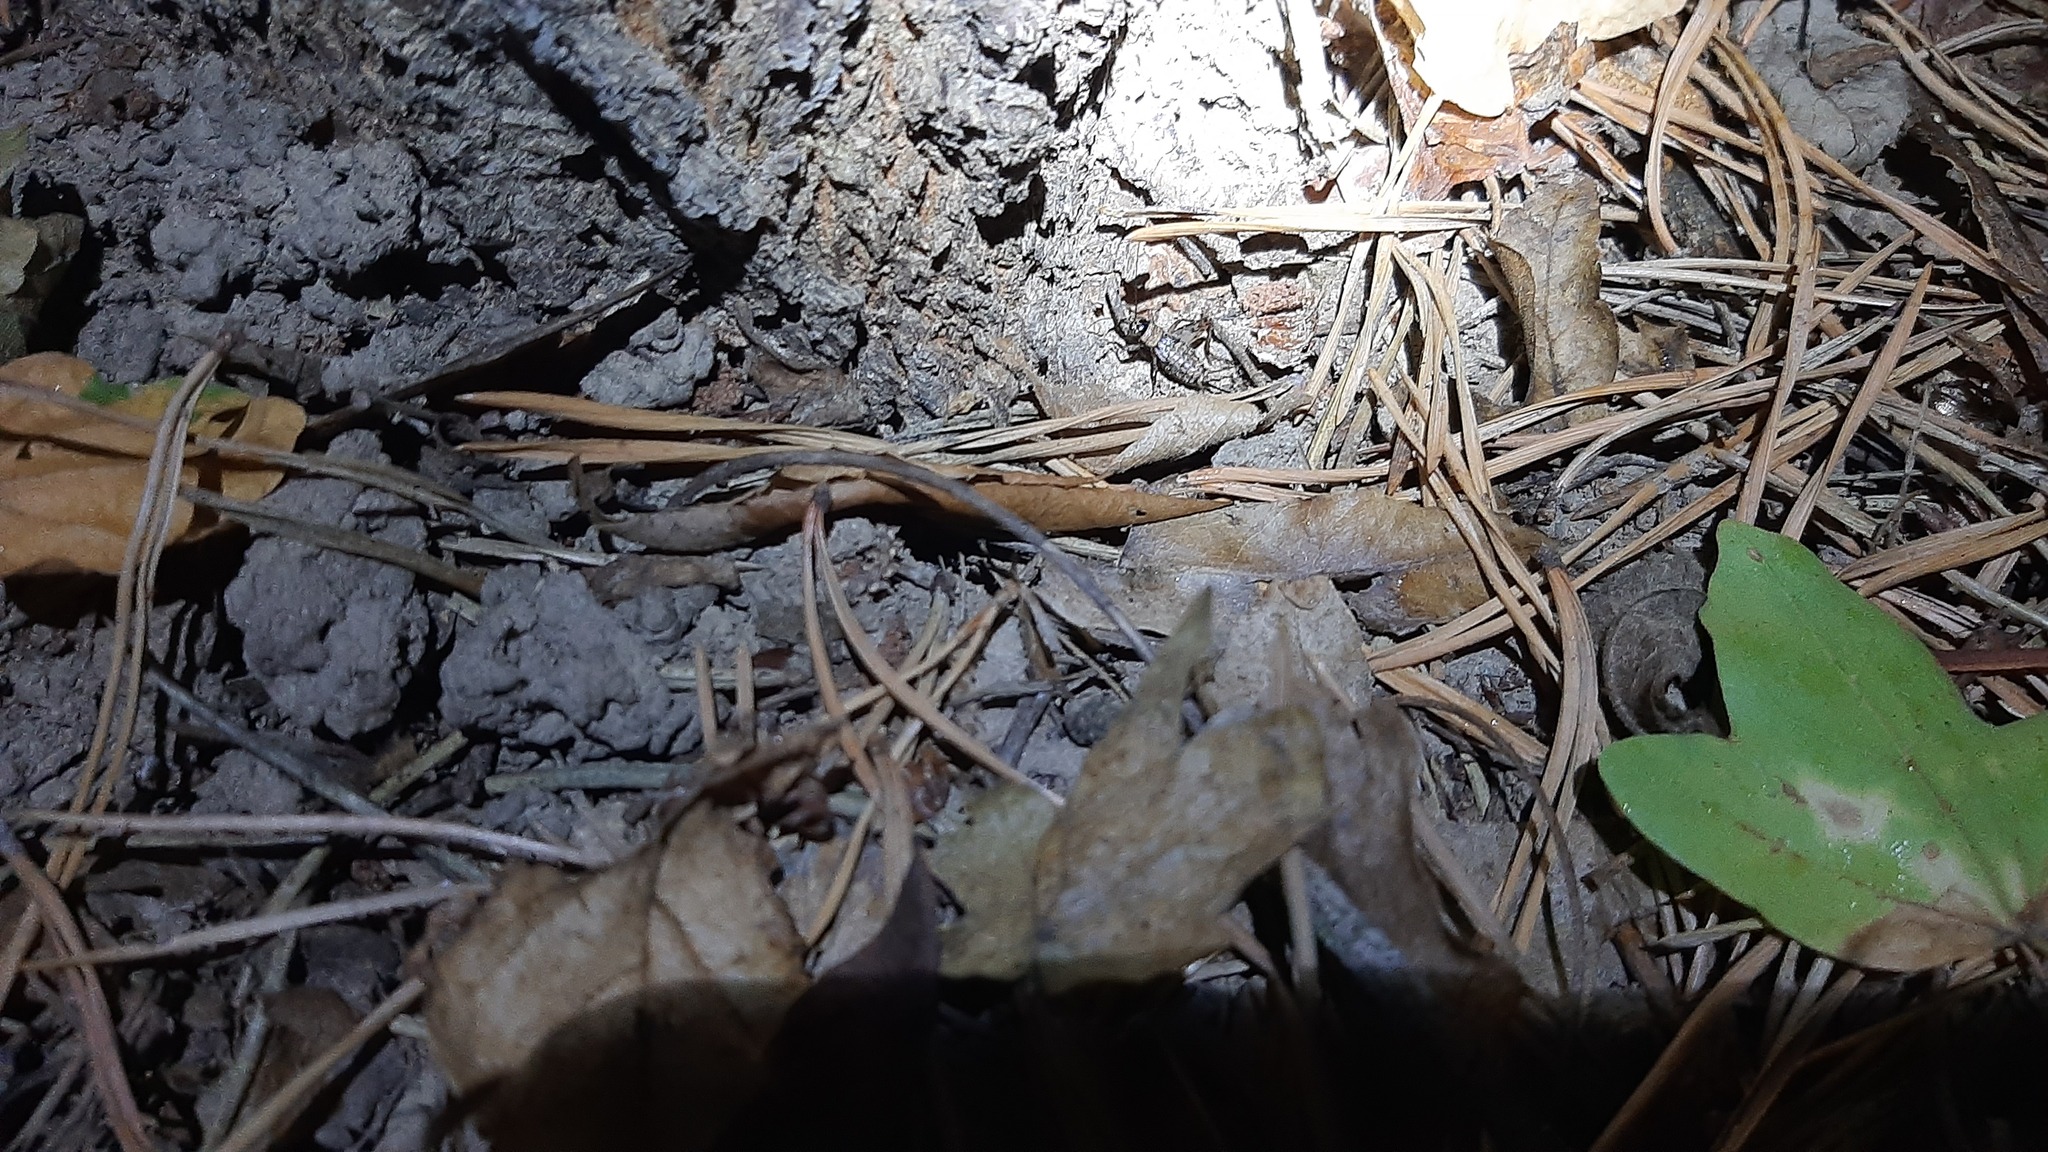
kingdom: Animalia
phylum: Arthropoda
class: Insecta
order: Orthoptera
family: Trigonidiidae
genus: Nemobius
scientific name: Nemobius sylvestris
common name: Wood-cricket
